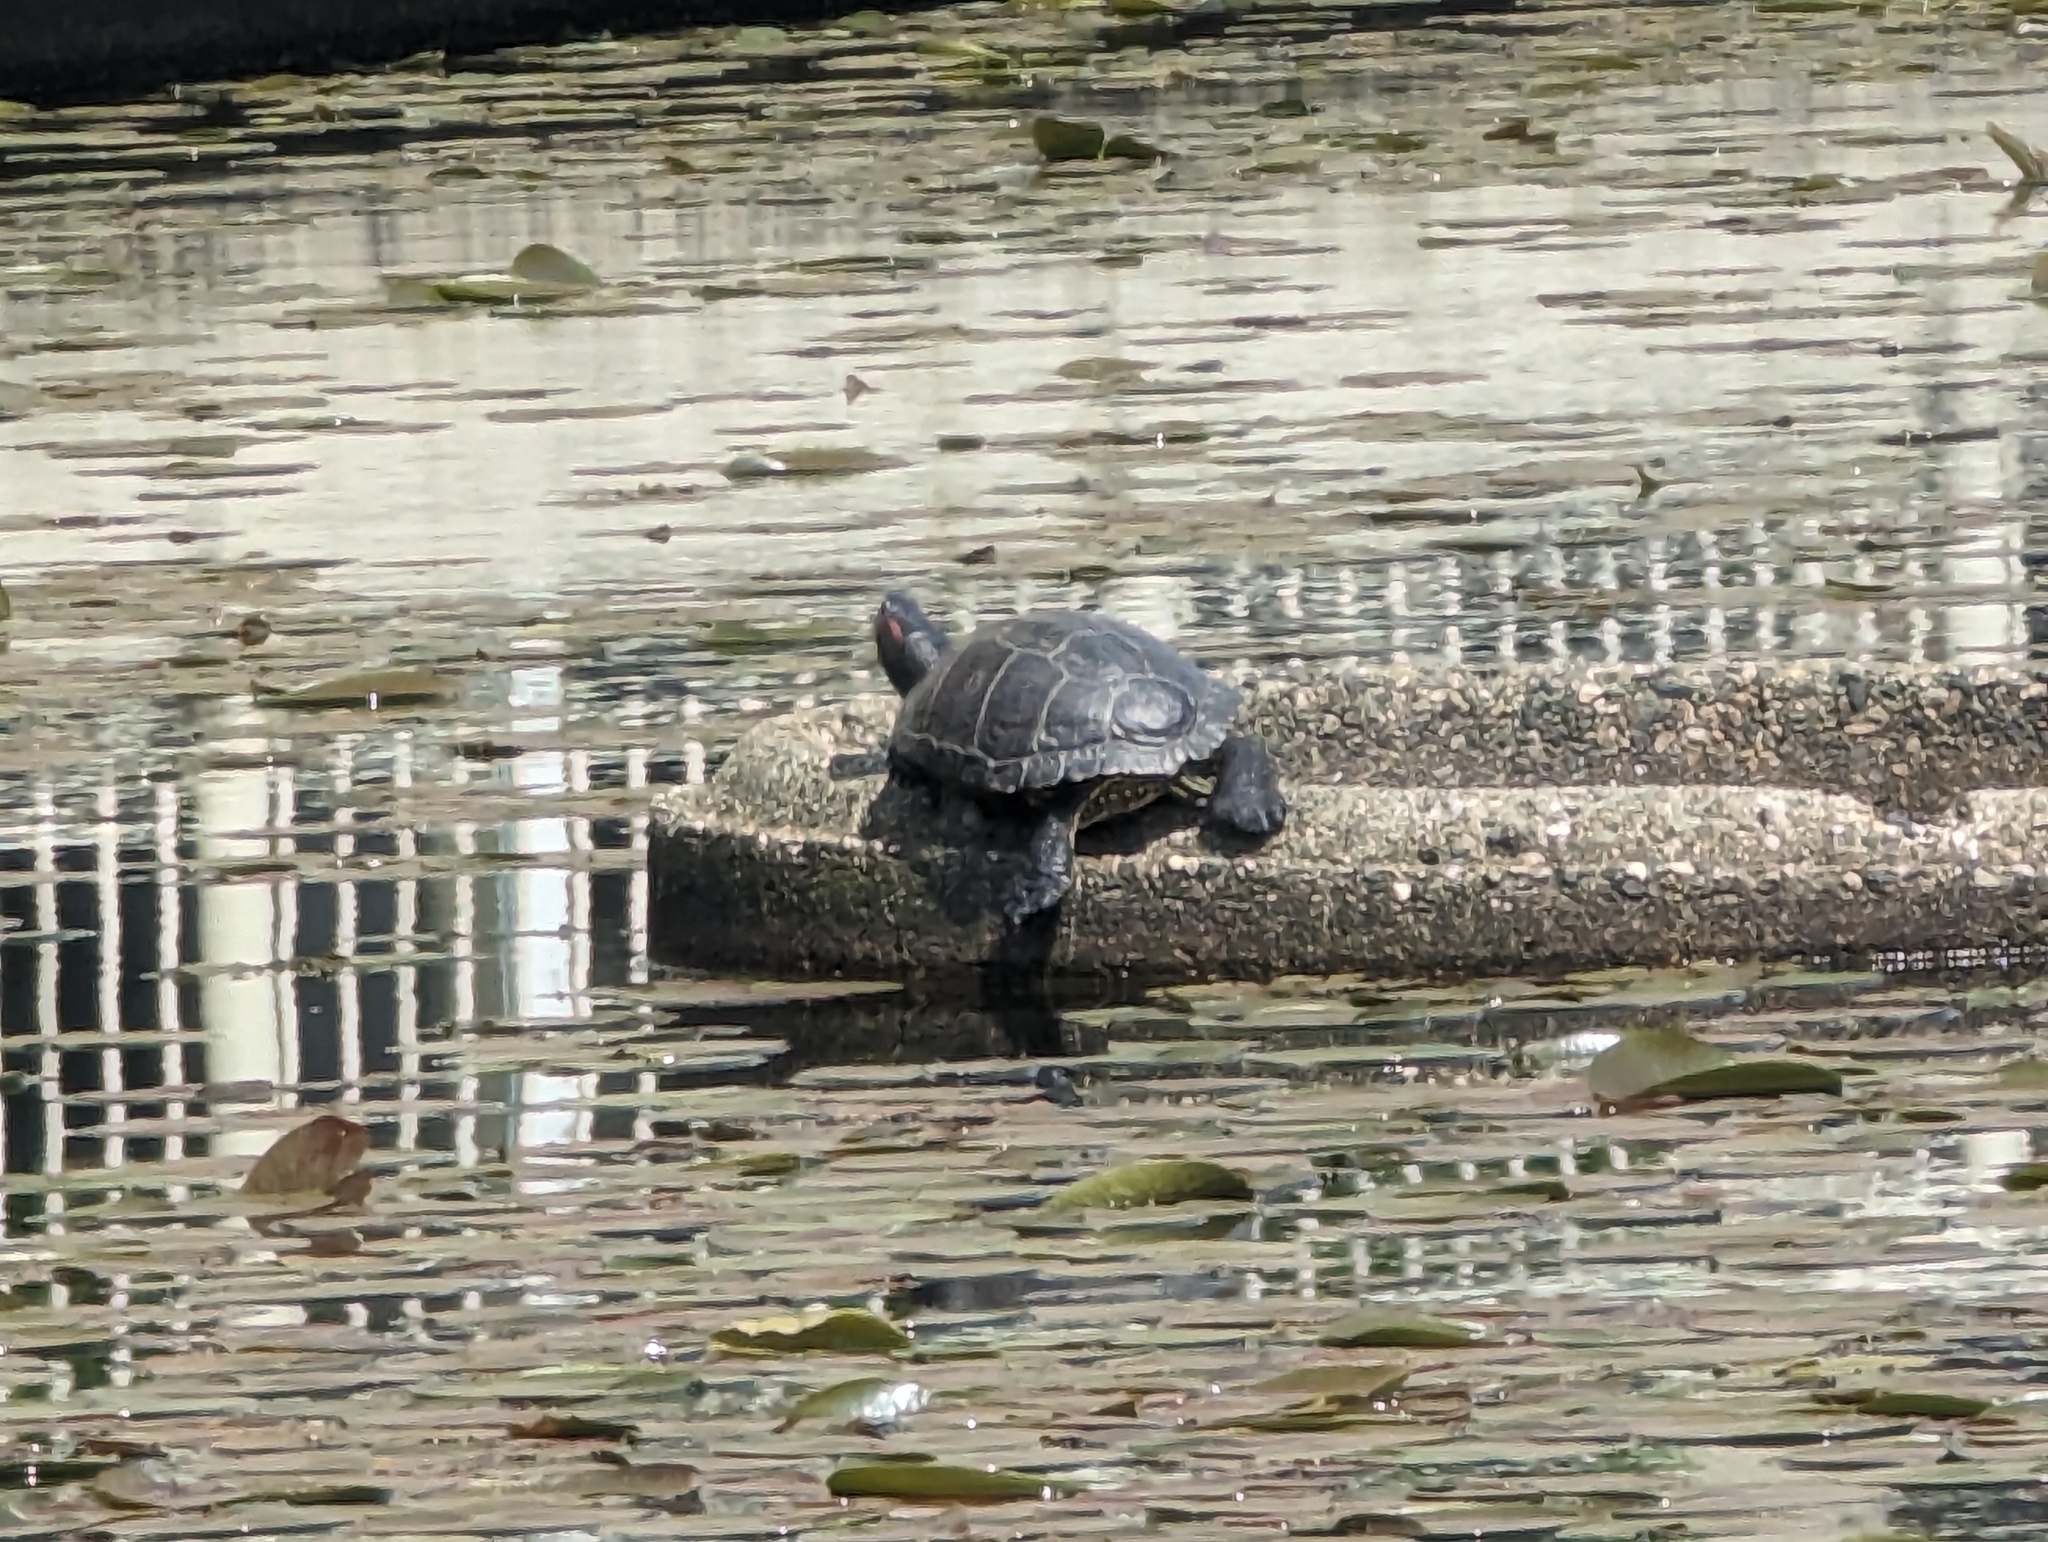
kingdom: Animalia
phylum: Chordata
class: Testudines
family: Emydidae
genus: Trachemys
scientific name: Trachemys scripta
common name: Slider
